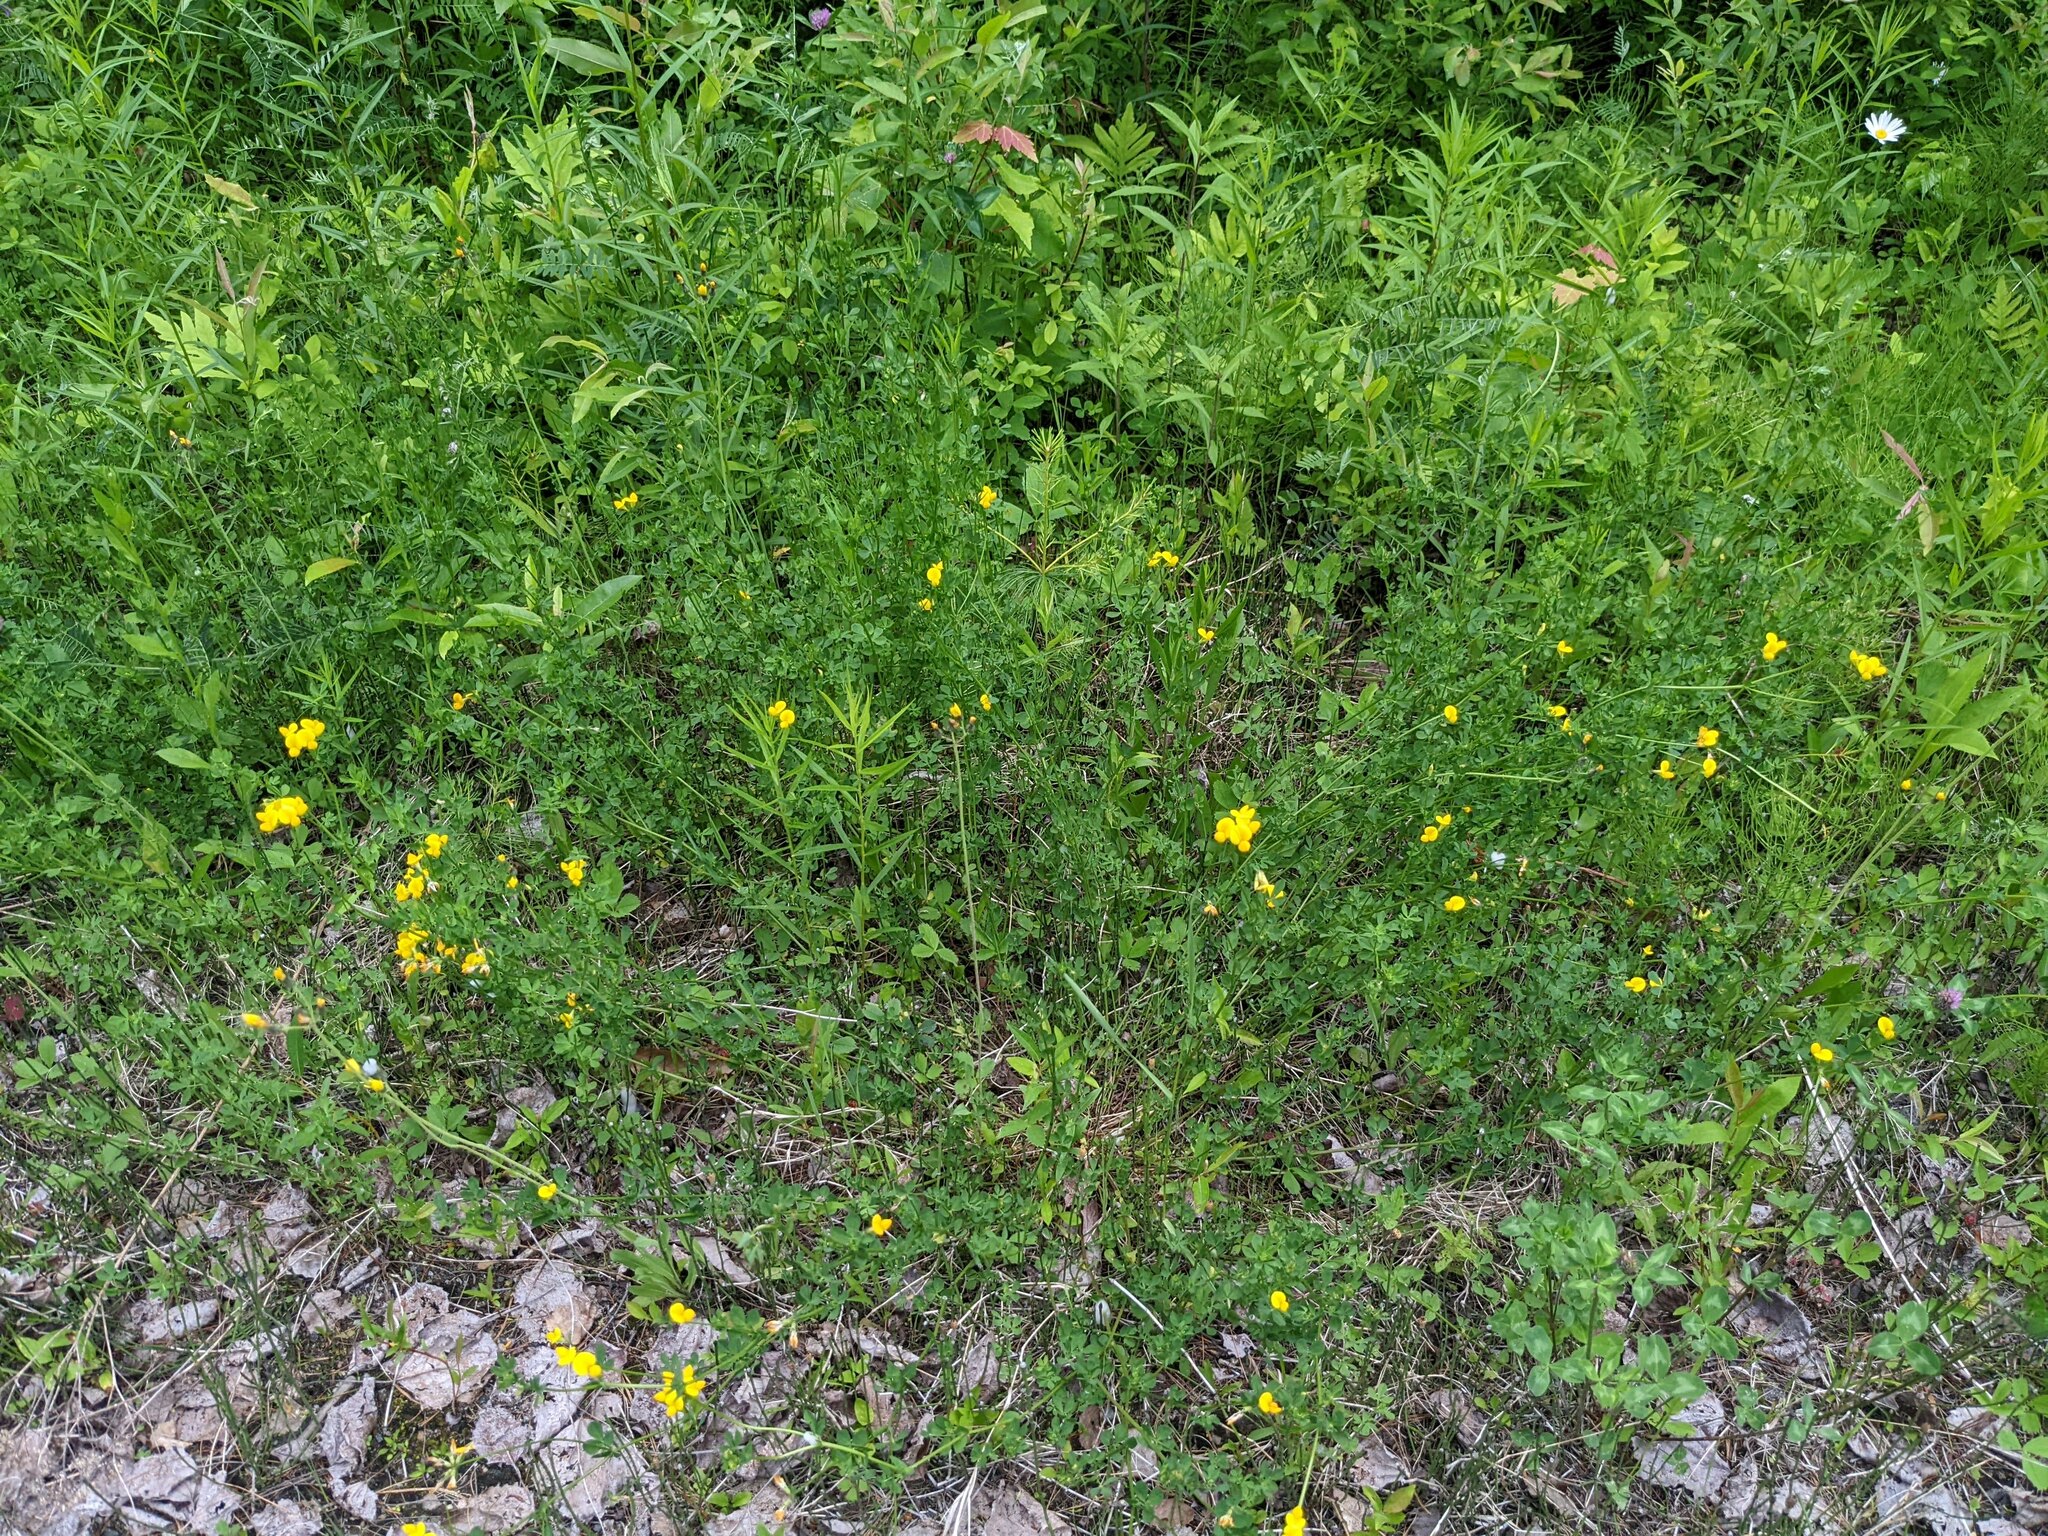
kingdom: Plantae
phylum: Tracheophyta
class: Magnoliopsida
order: Fabales
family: Fabaceae
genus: Lotus
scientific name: Lotus corniculatus
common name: Common bird's-foot-trefoil
